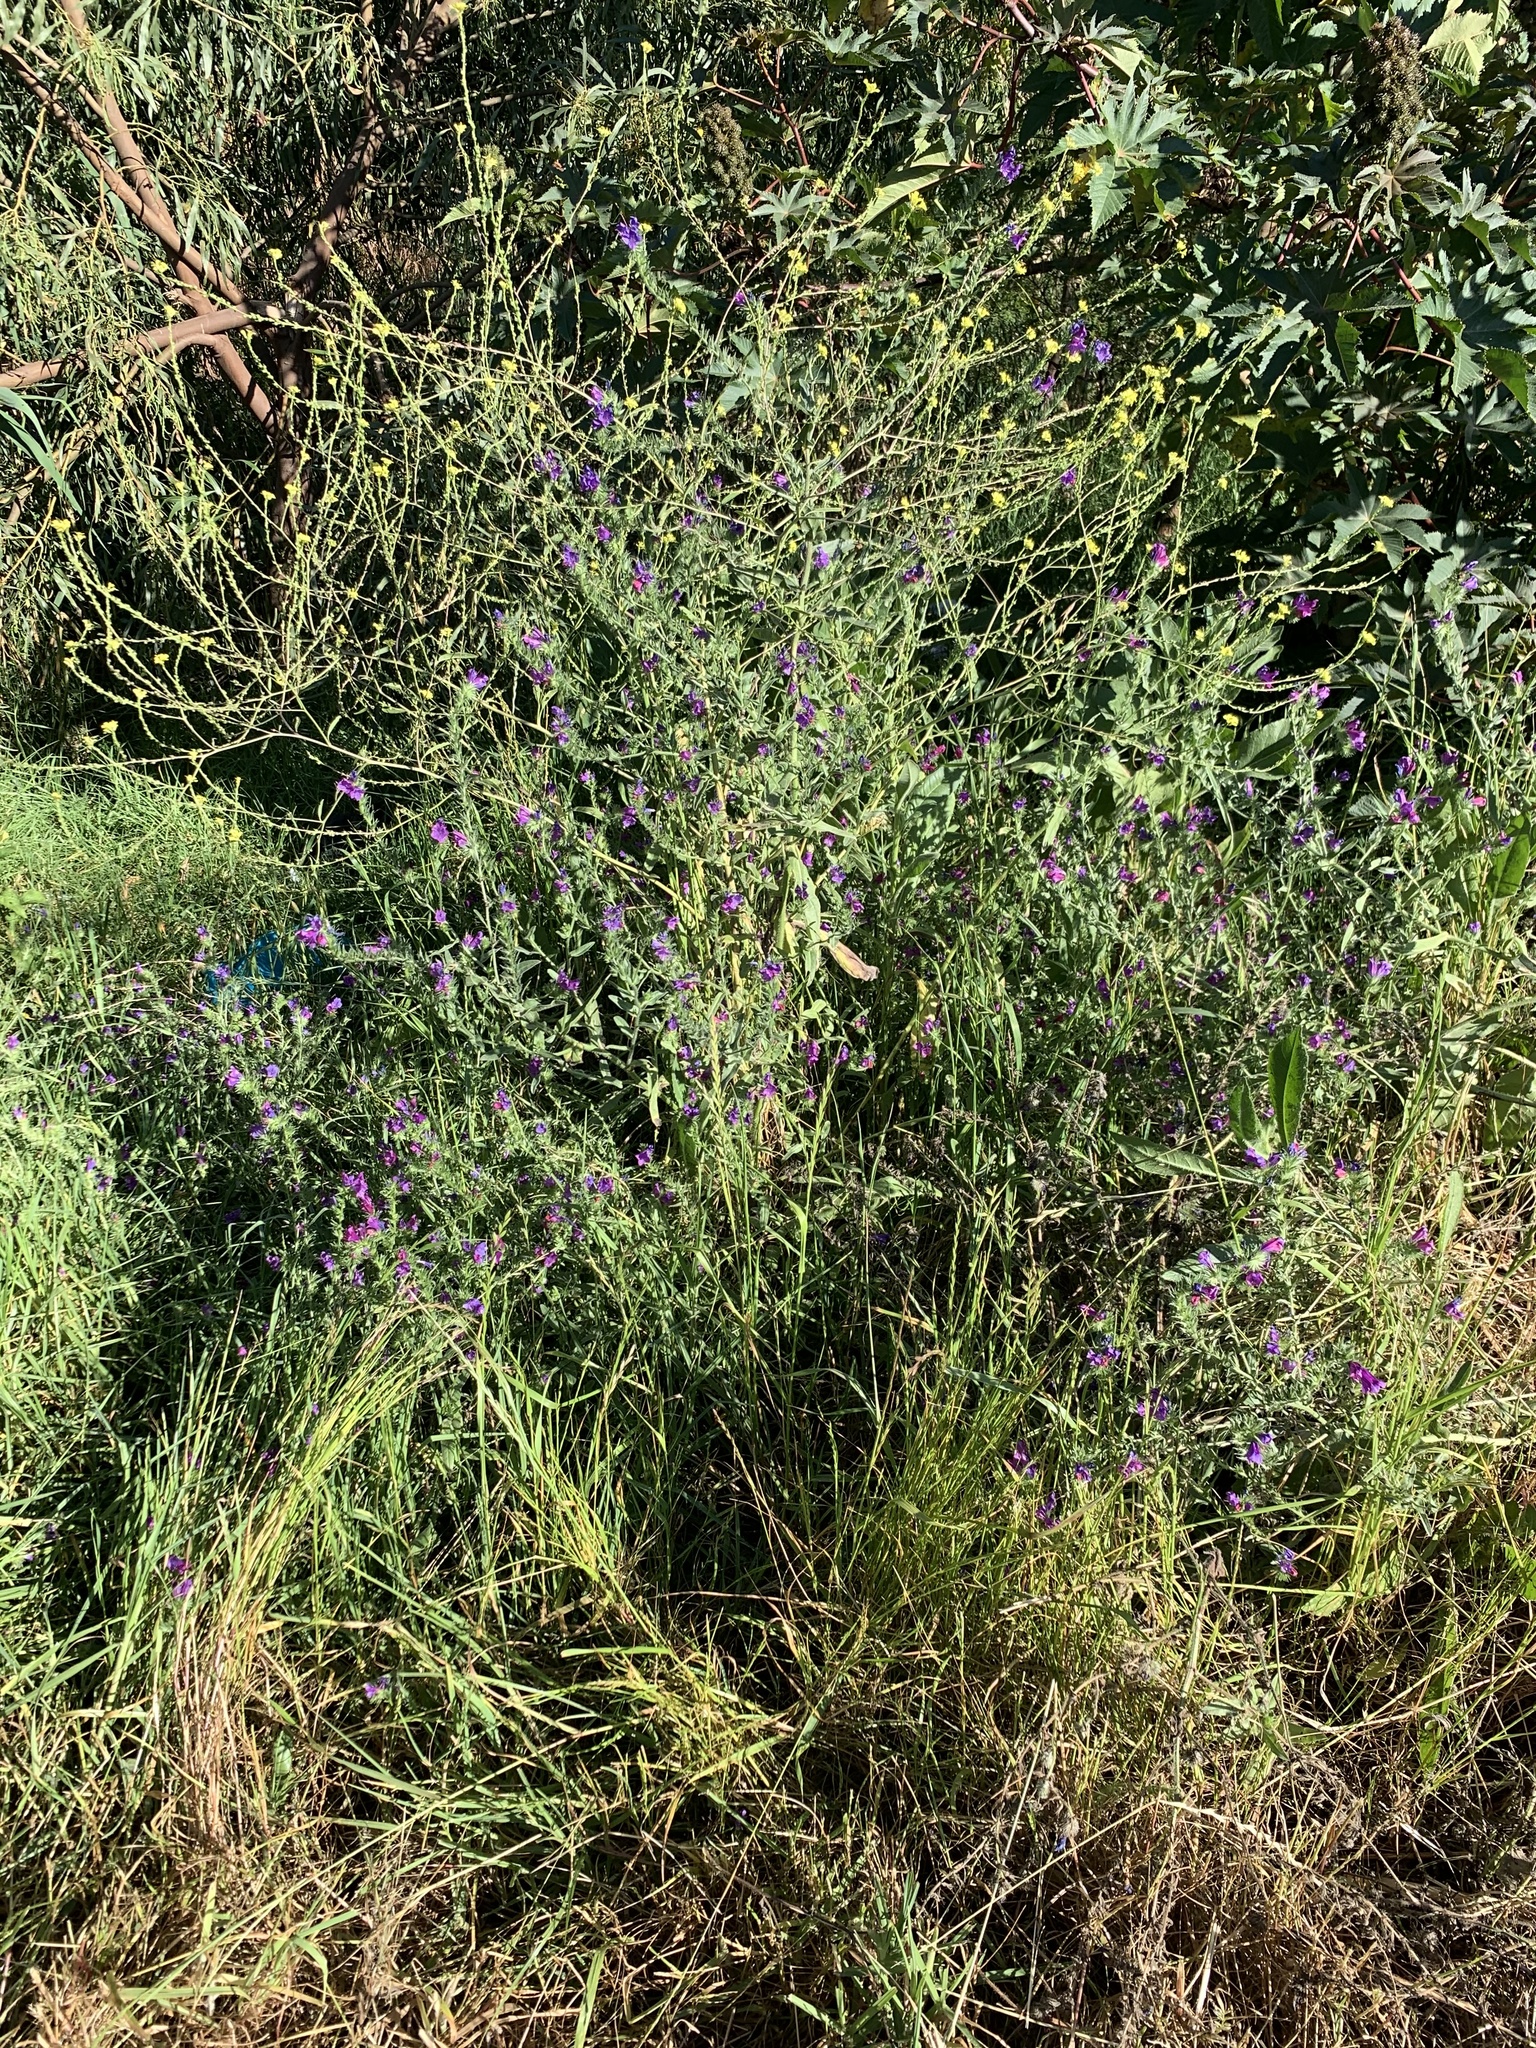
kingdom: Plantae
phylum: Tracheophyta
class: Magnoliopsida
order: Boraginales
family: Boraginaceae
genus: Echium
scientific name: Echium plantagineum
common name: Purple viper's-bugloss
